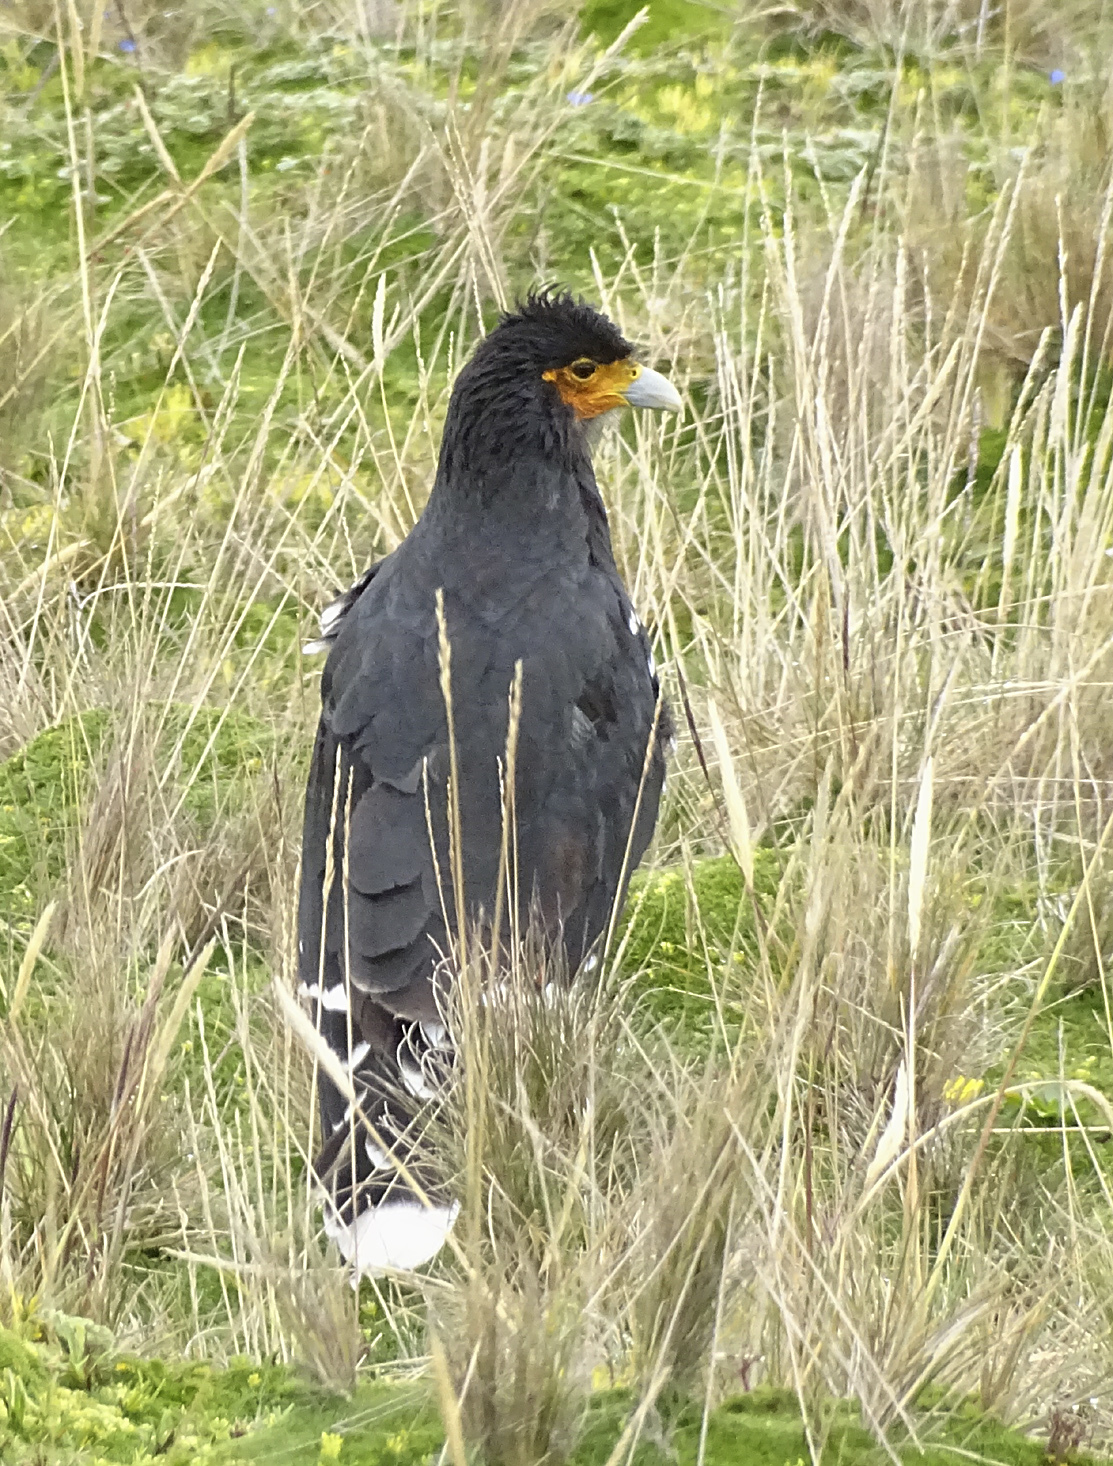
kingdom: Animalia
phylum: Chordata
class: Aves
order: Falconiformes
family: Falconidae
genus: Daptrius
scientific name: Daptrius
